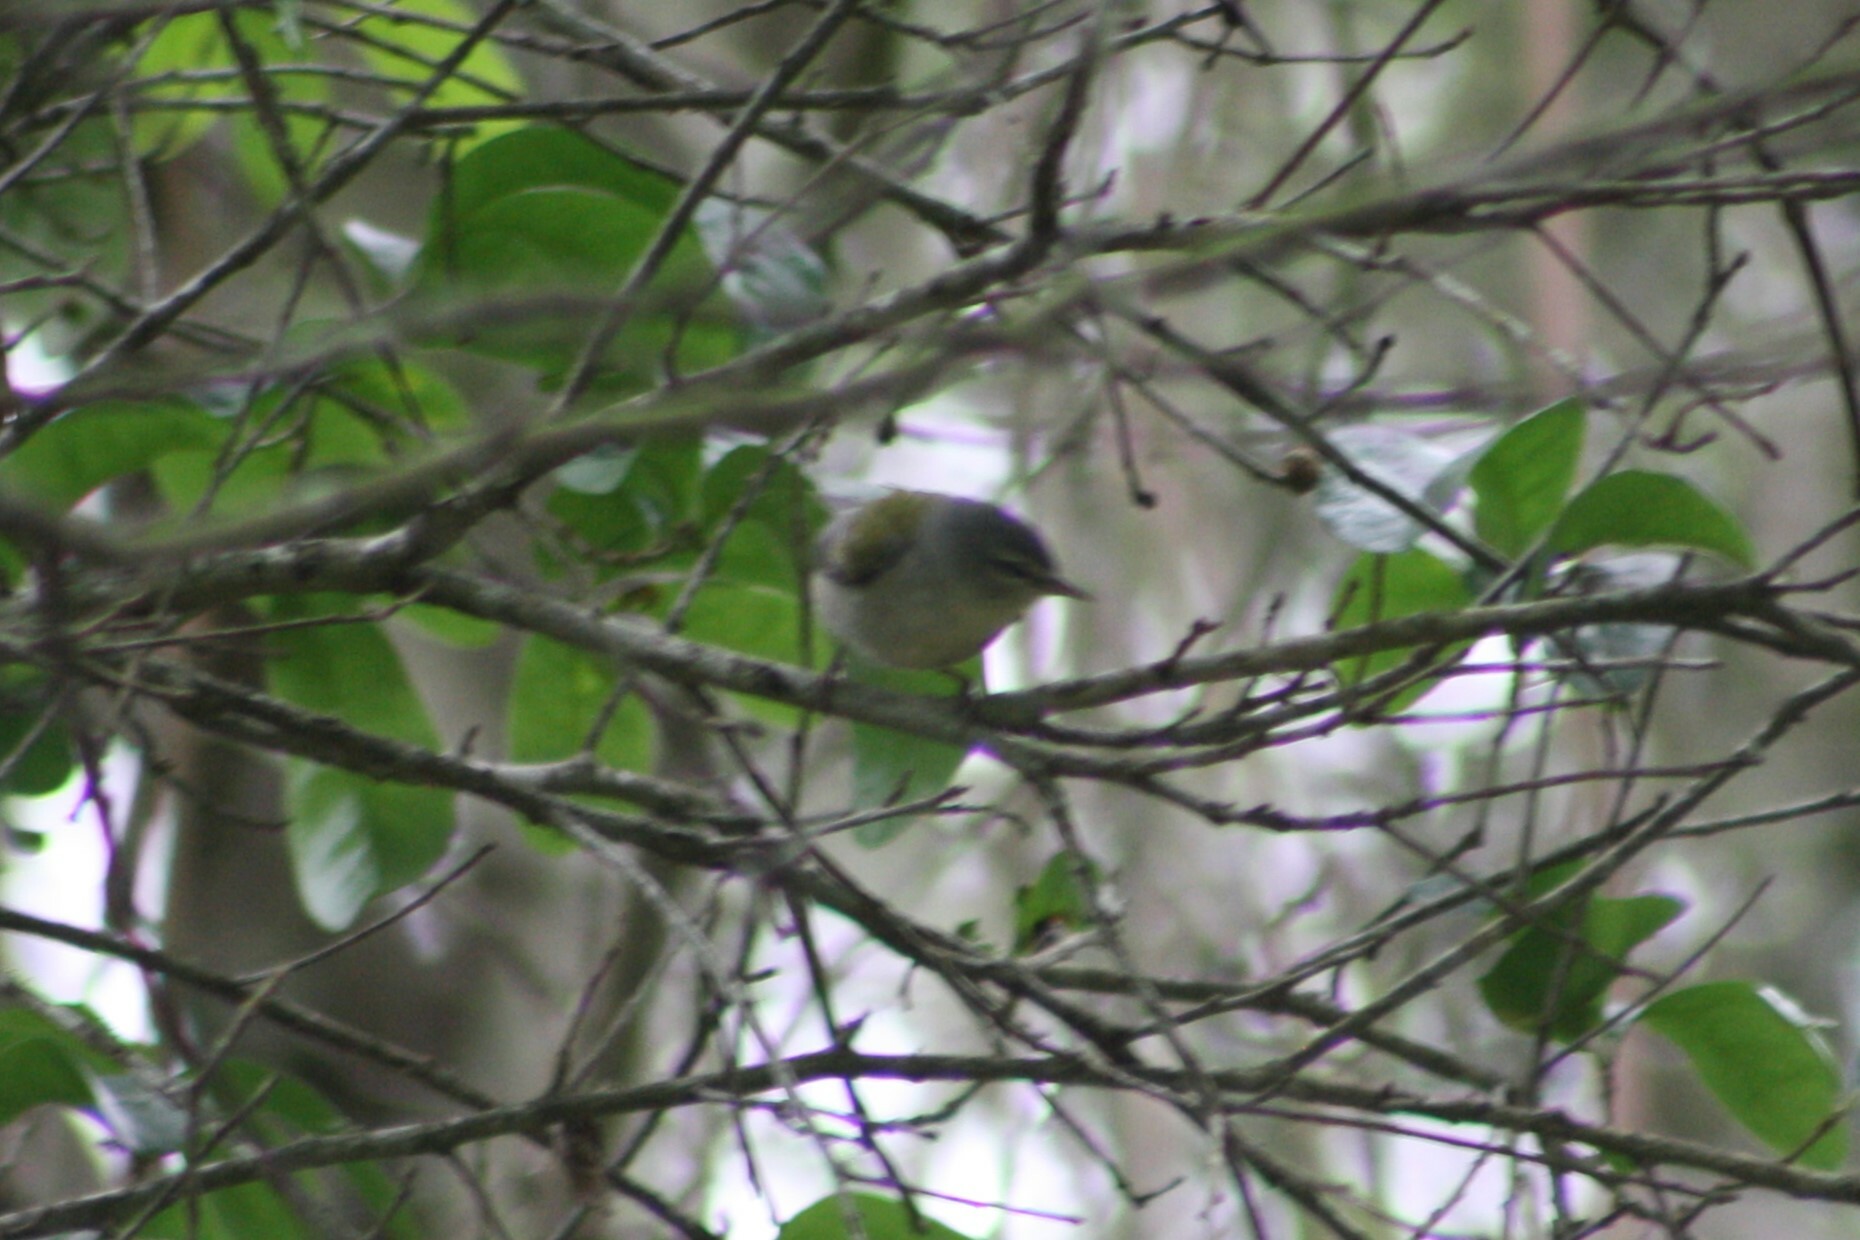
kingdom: Animalia
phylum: Chordata
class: Aves
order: Passeriformes
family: Parulidae
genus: Leiothlypis
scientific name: Leiothlypis peregrina
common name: Tennessee warbler
